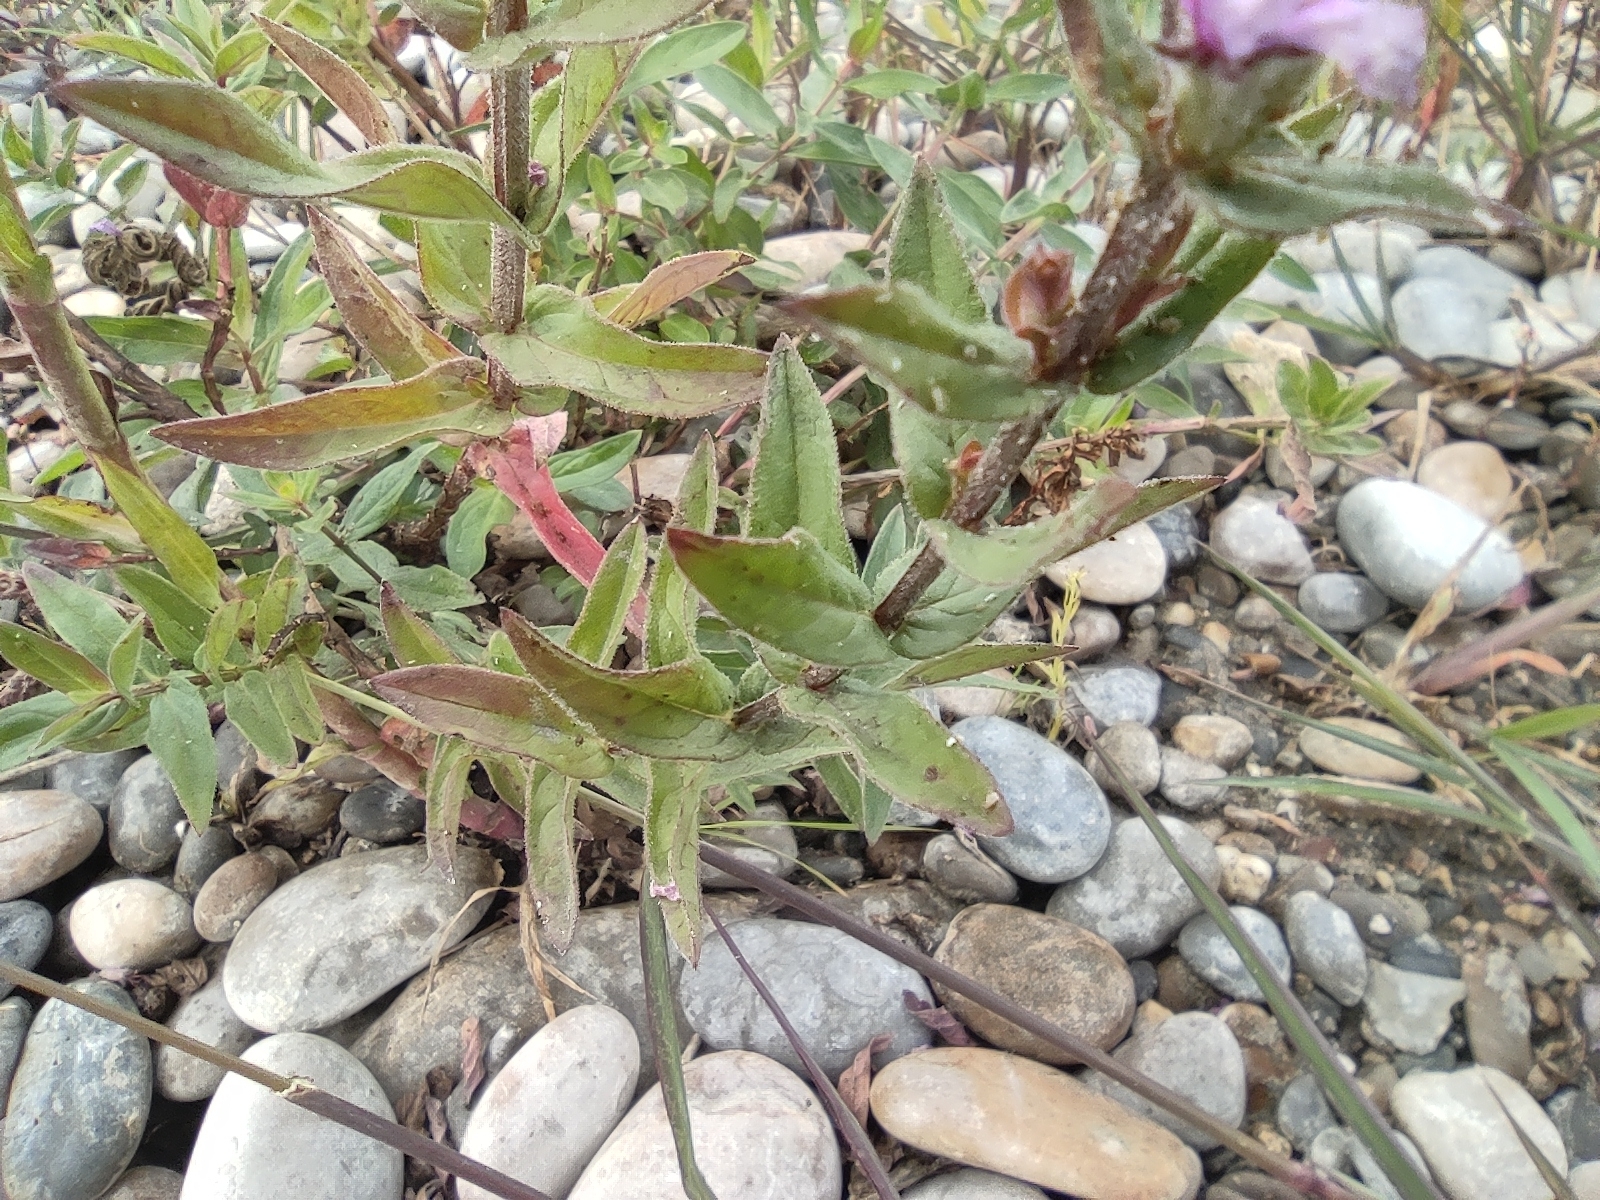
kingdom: Plantae
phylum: Tracheophyta
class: Magnoliopsida
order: Myrtales
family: Lythraceae
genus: Lythrum
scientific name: Lythrum salicaria
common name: Purple loosestrife
